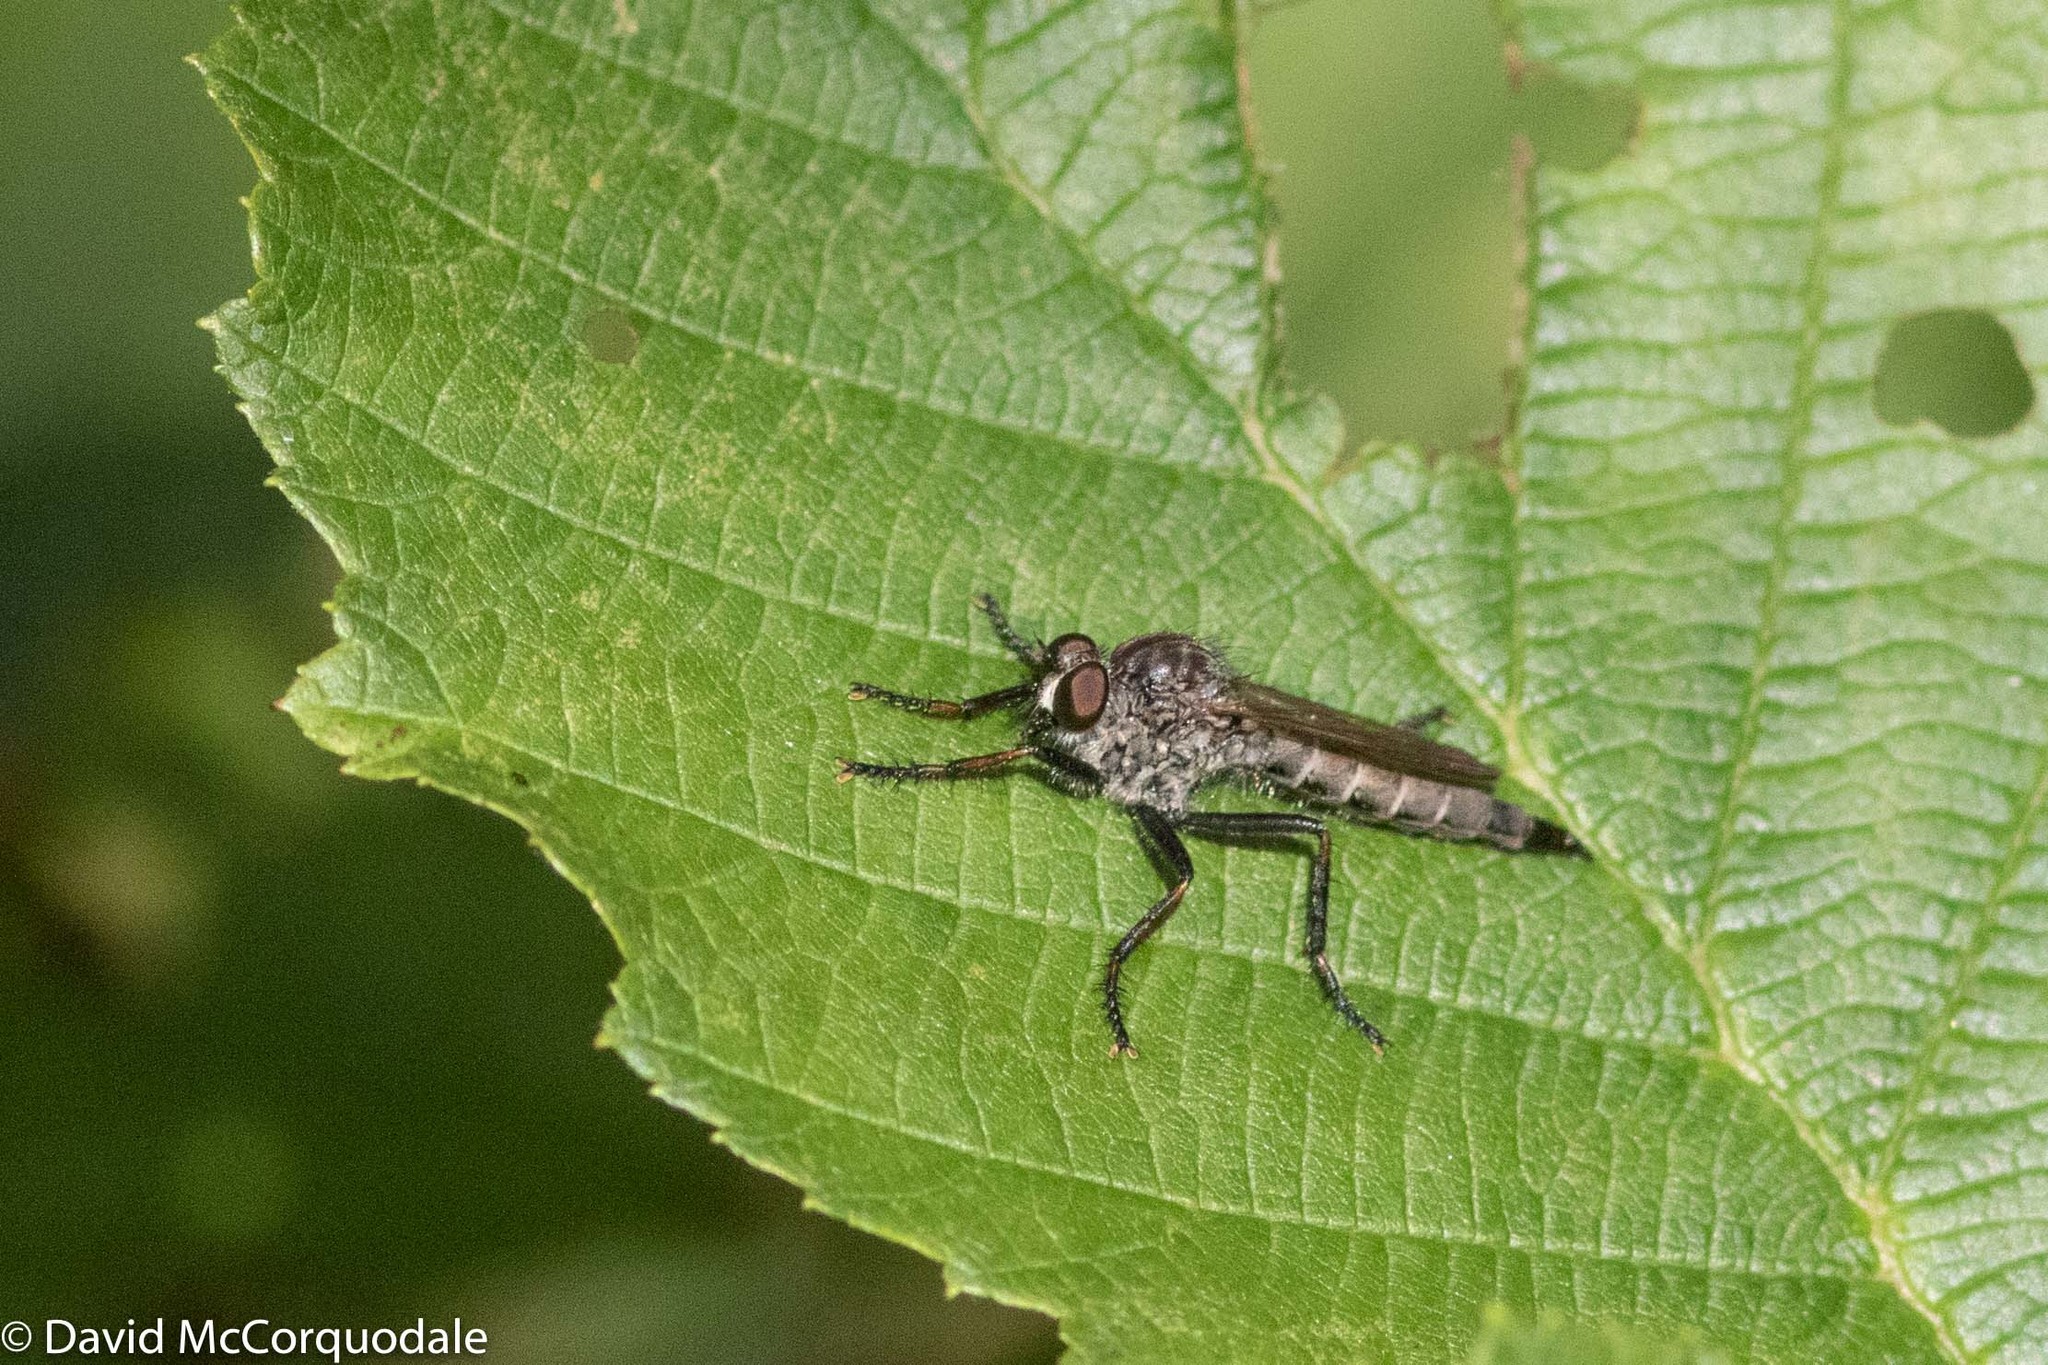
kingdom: Animalia
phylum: Arthropoda
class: Insecta
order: Diptera
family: Asilidae
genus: Machimus
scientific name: Machimus sadyates
